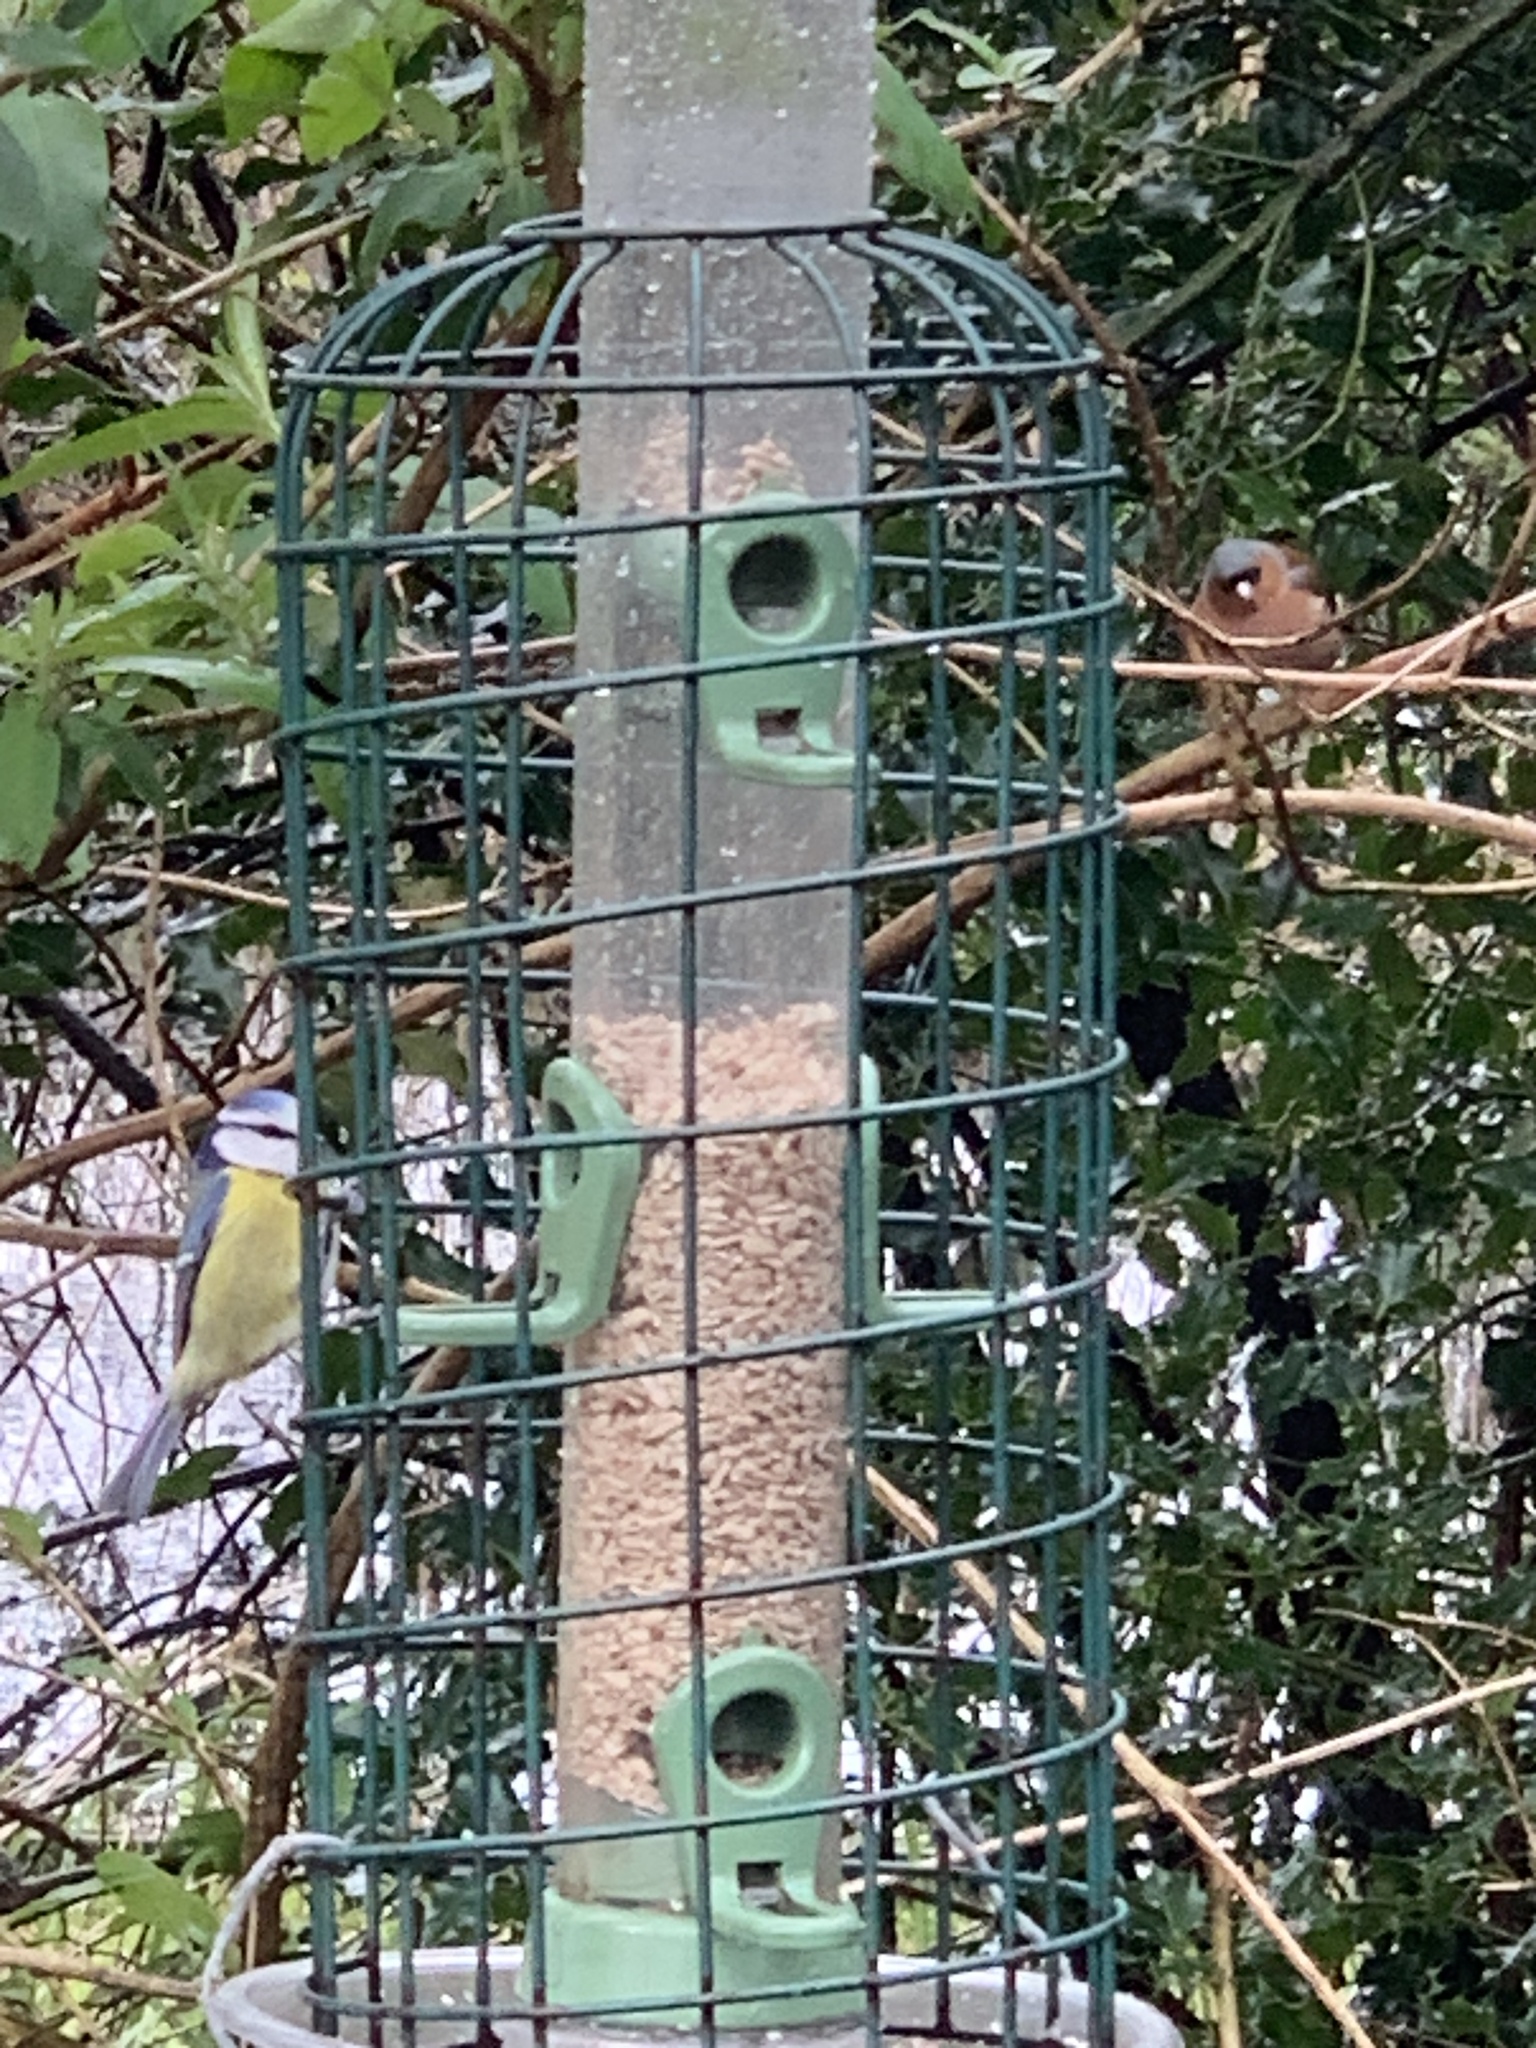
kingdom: Animalia
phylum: Chordata
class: Aves
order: Passeriformes
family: Paridae
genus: Cyanistes
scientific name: Cyanistes caeruleus
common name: Eurasian blue tit
